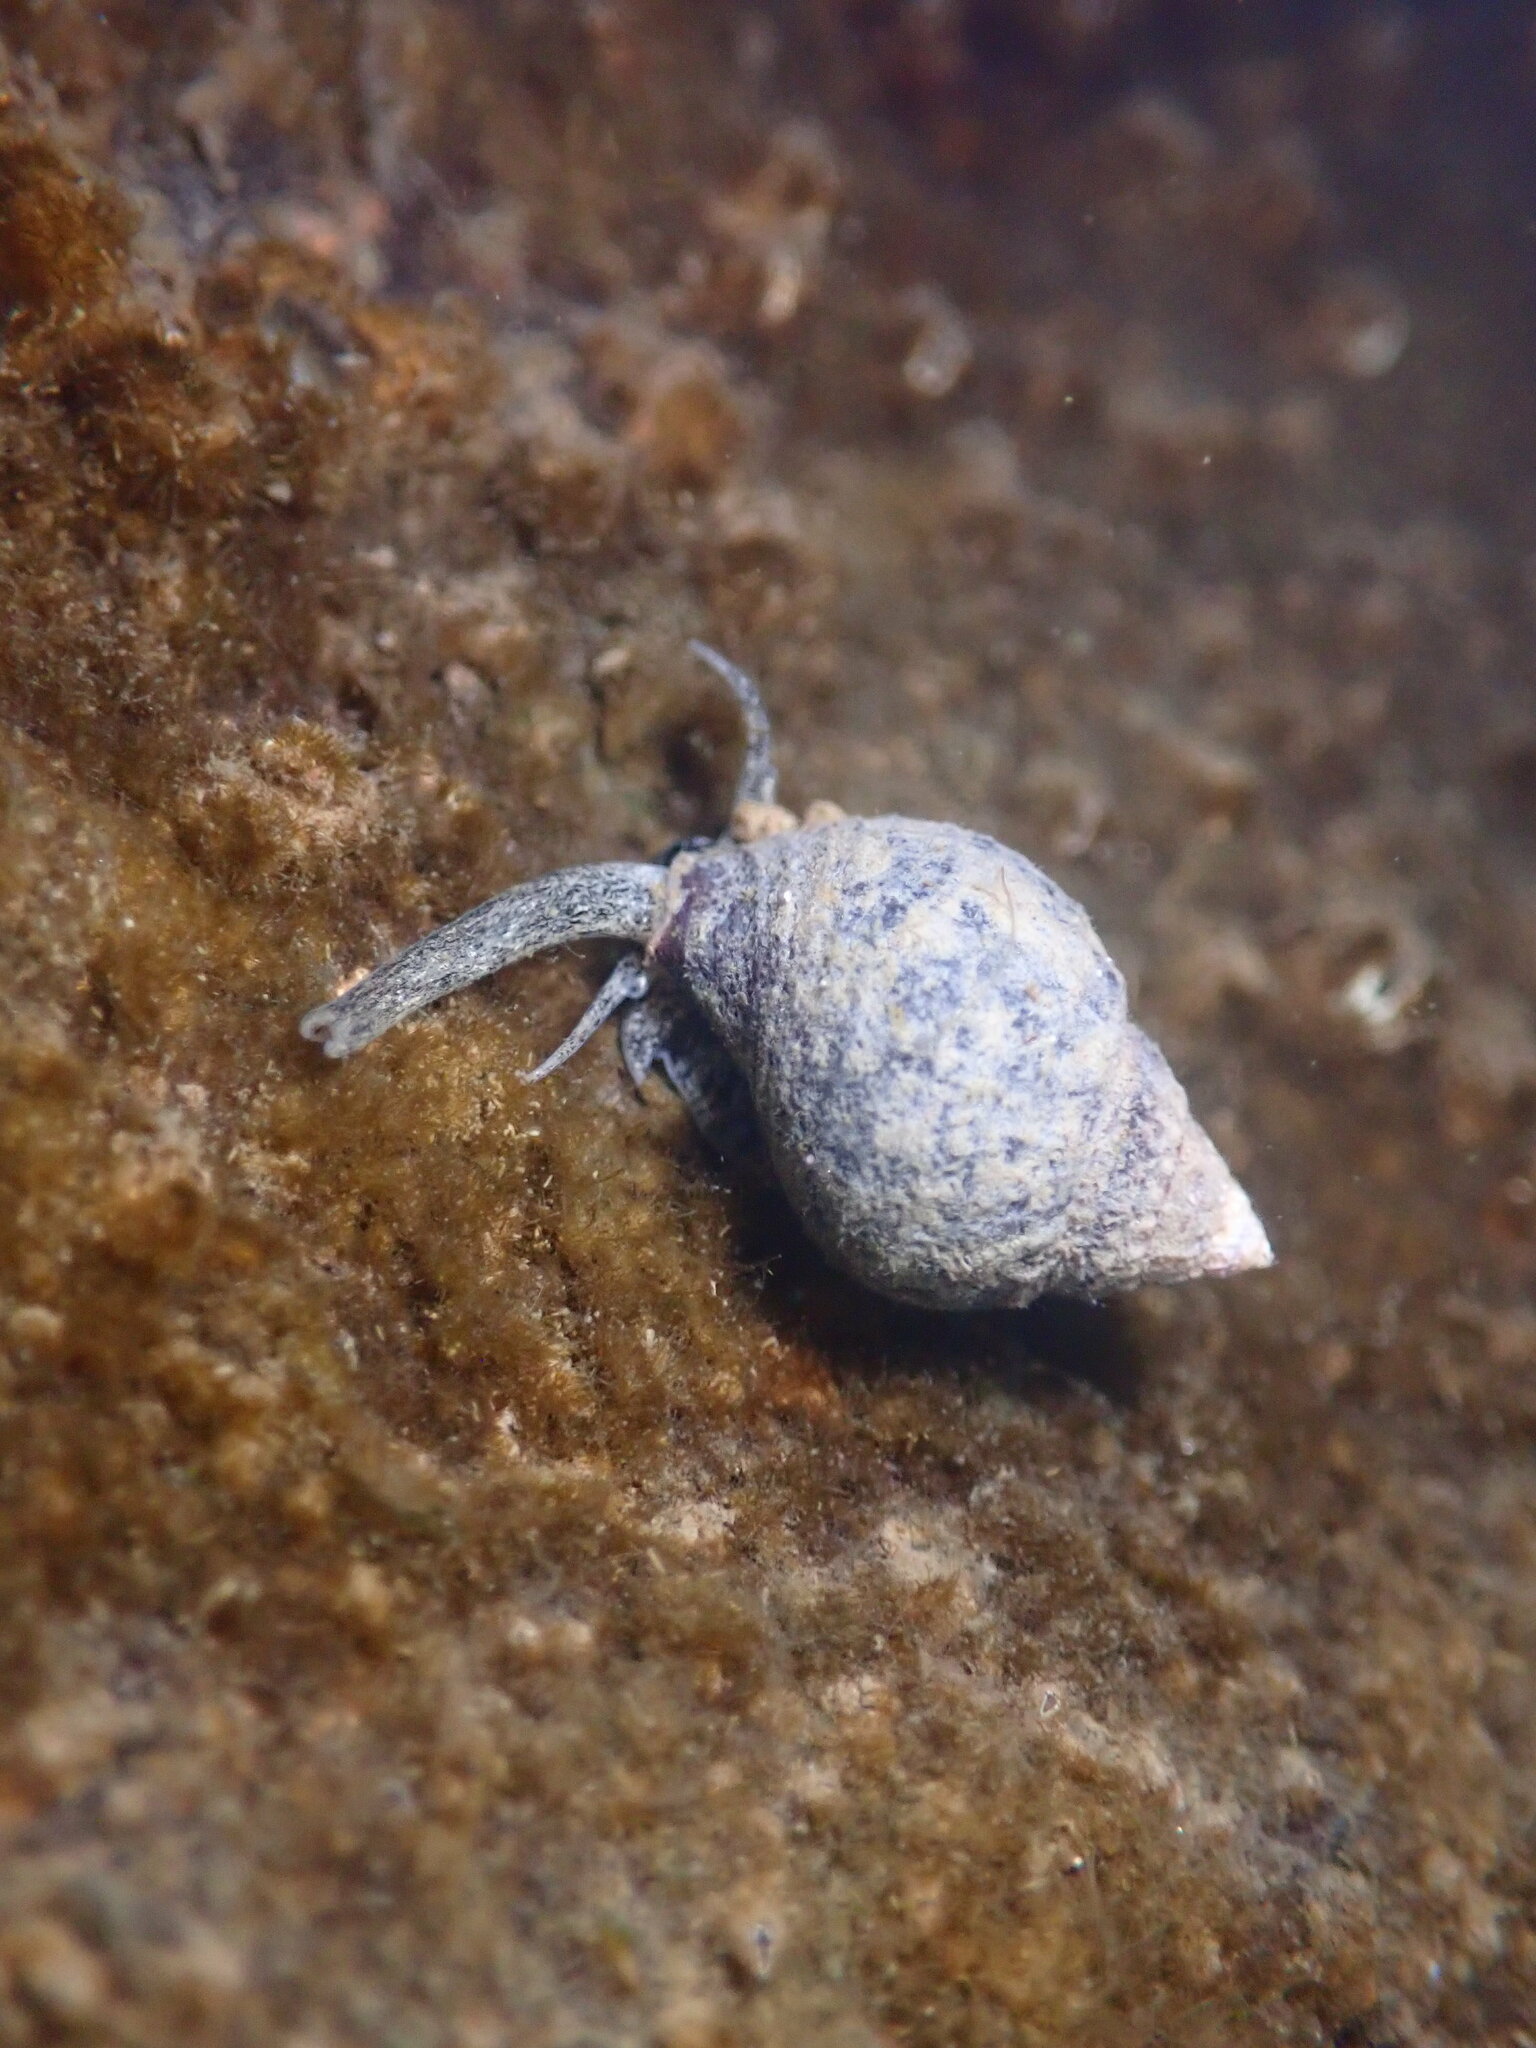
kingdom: Animalia
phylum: Mollusca
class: Gastropoda
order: Neogastropoda
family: Nassariidae
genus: Ilyanassa
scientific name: Ilyanassa obsoleta
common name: Eastern mudsnail
